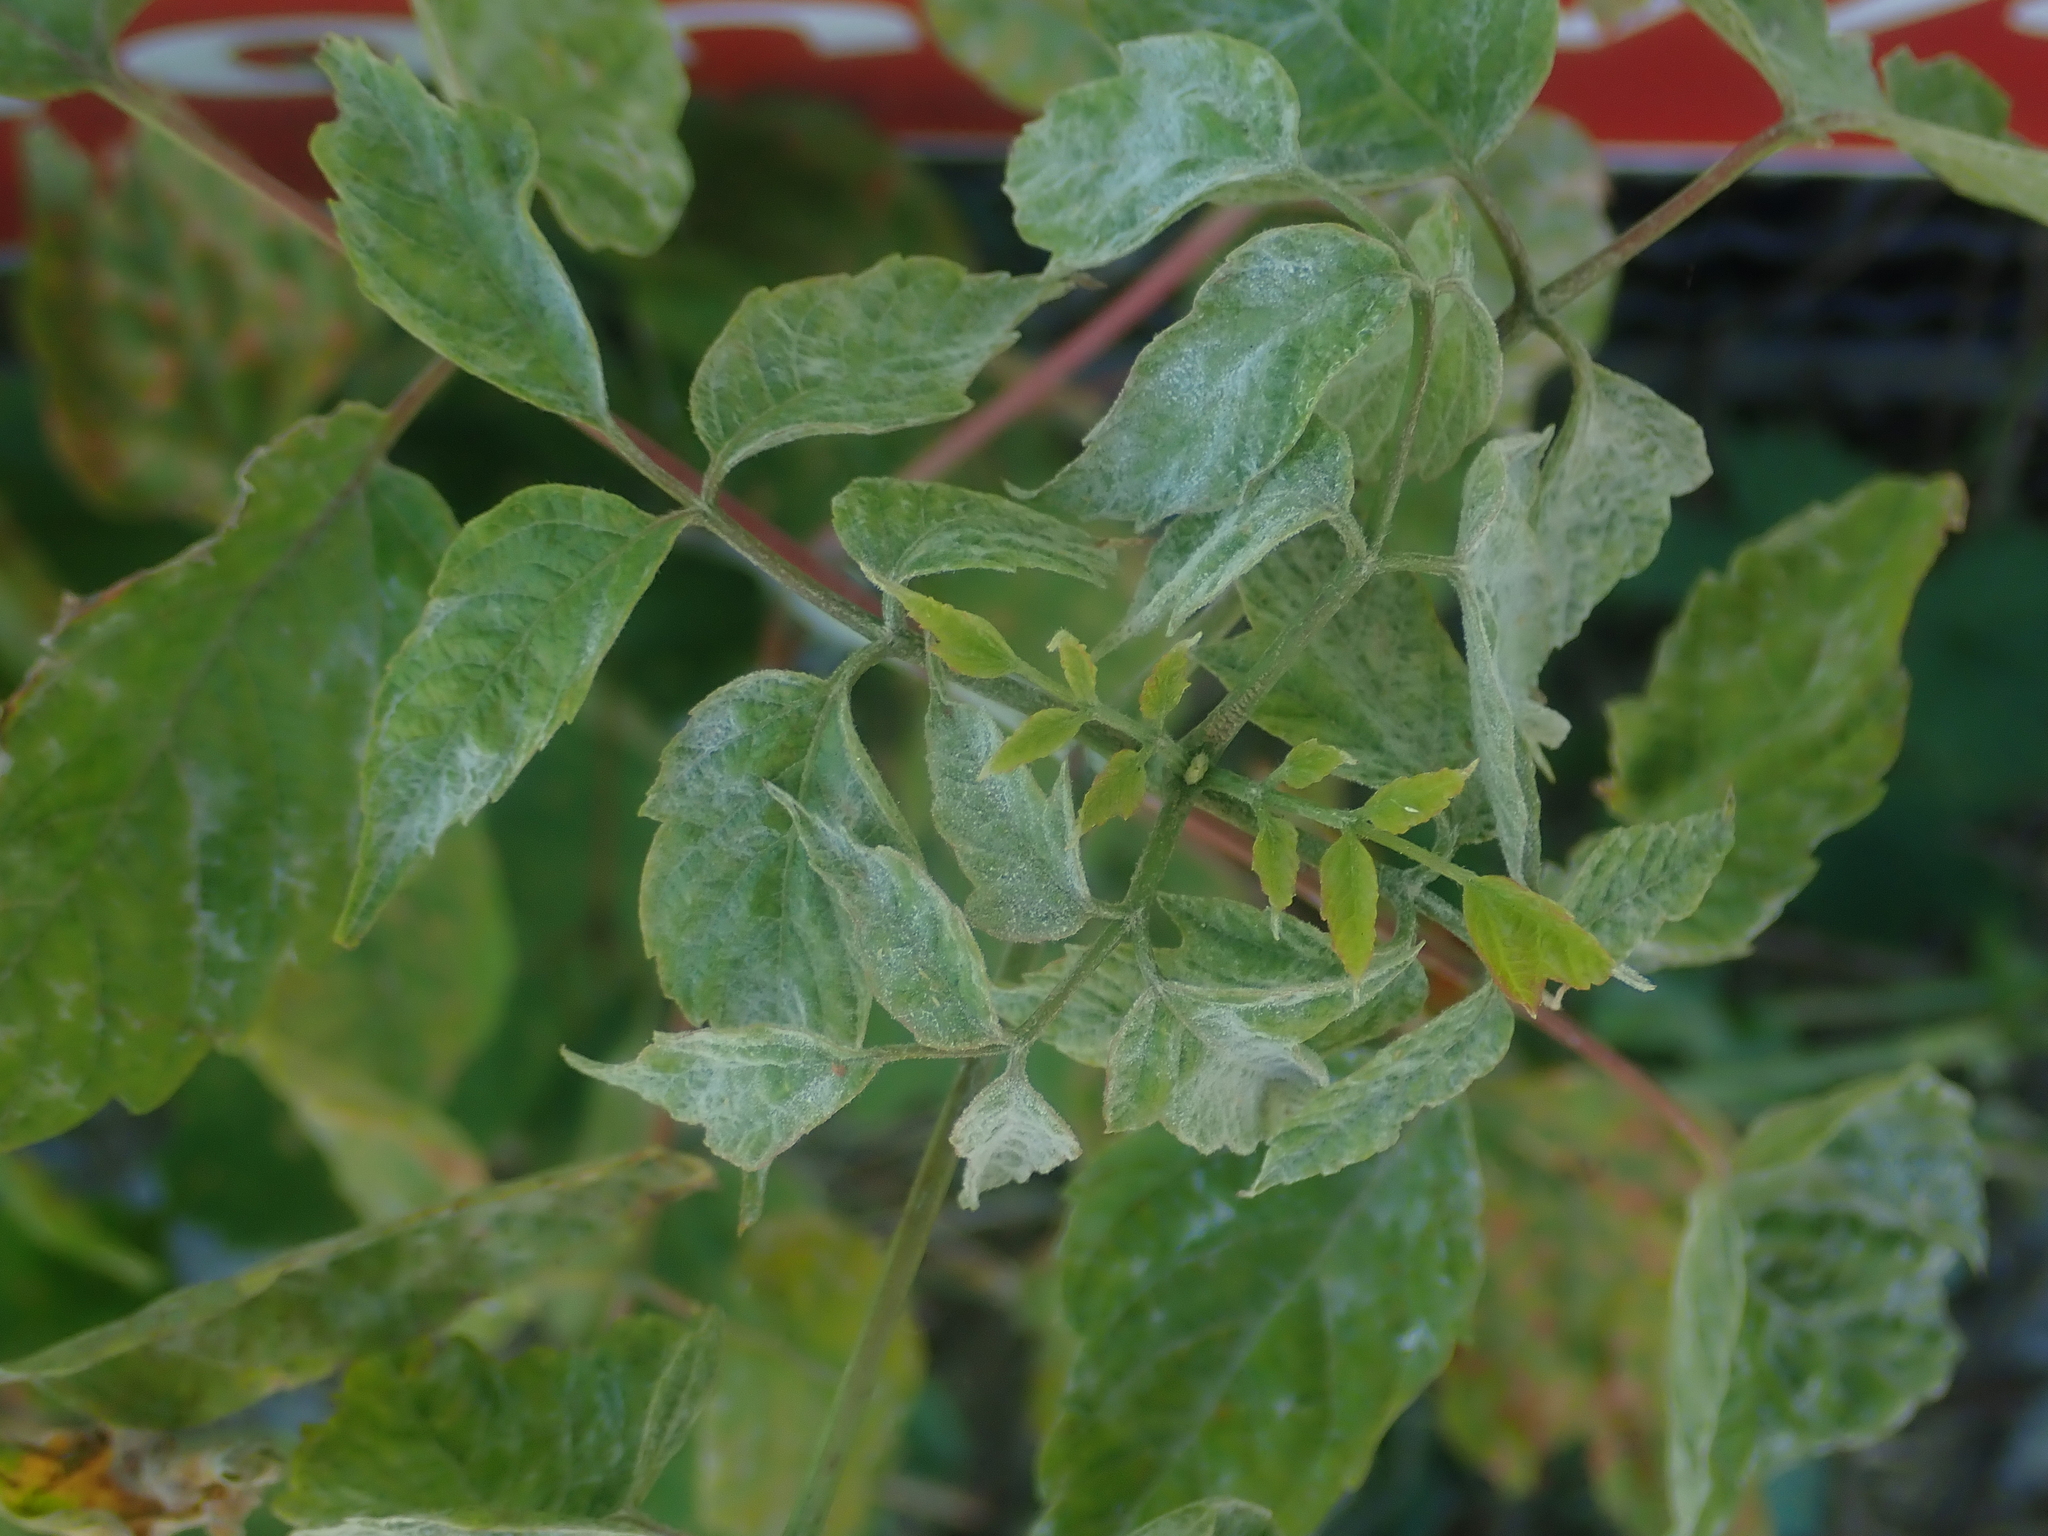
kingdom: Plantae
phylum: Tracheophyta
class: Magnoliopsida
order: Sapindales
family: Sapindaceae
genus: Acer
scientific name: Acer negundo
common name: Ashleaf maple
